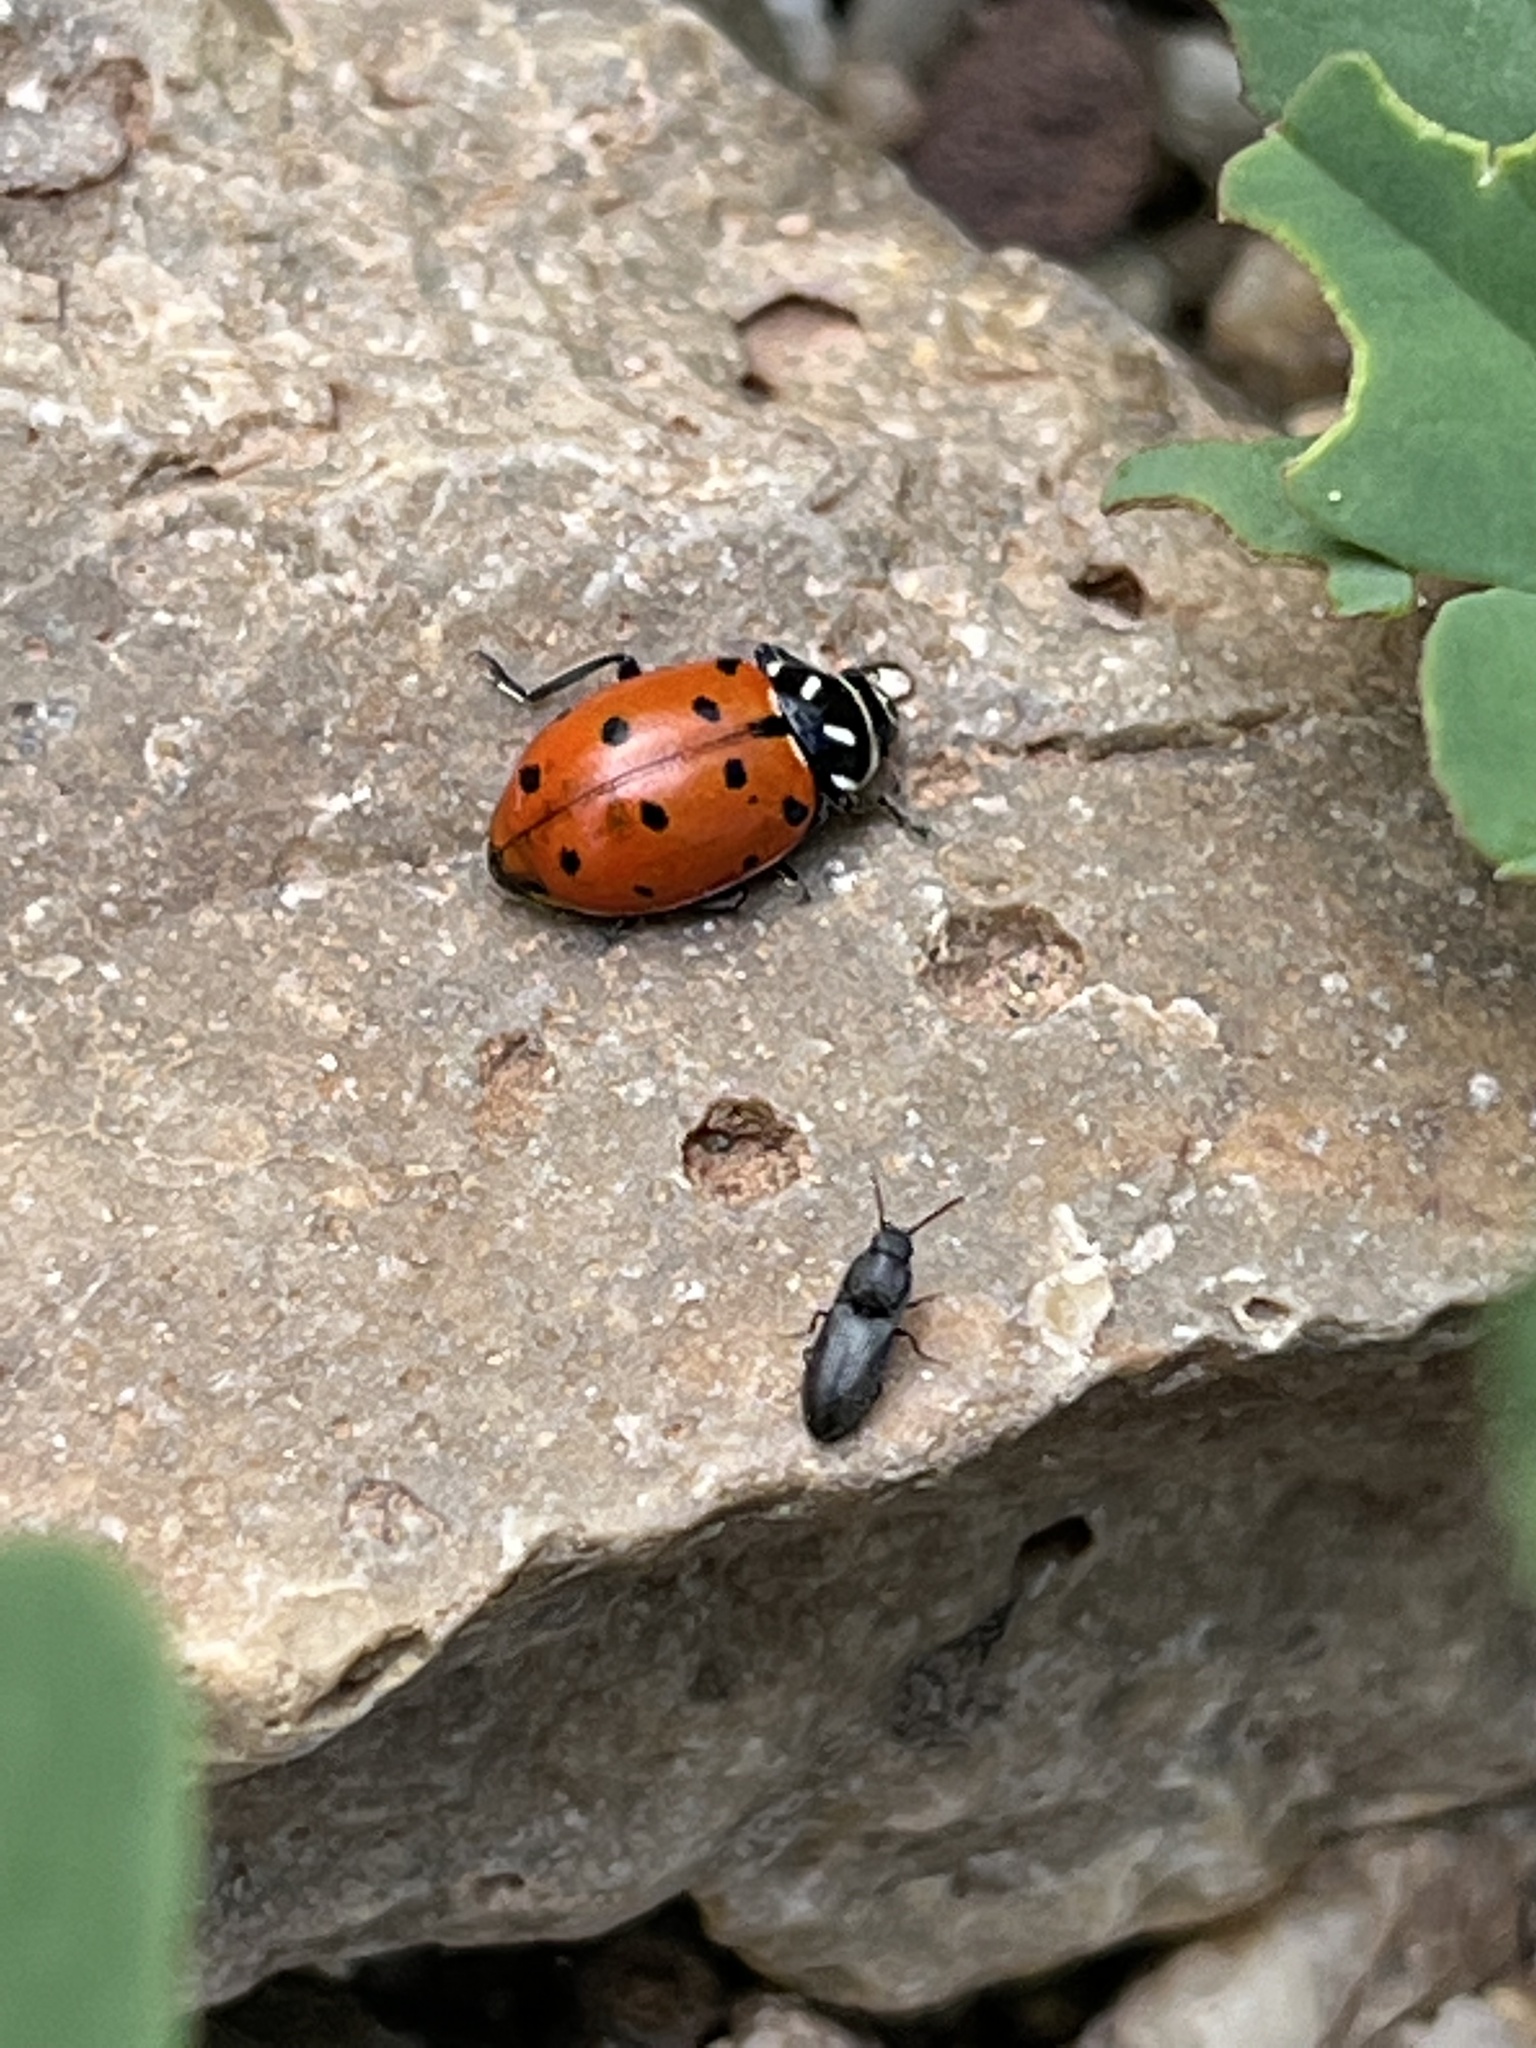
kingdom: Animalia
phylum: Arthropoda
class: Insecta
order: Coleoptera
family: Coccinellidae
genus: Hippodamia
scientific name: Hippodamia convergens
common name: Convergent lady beetle
